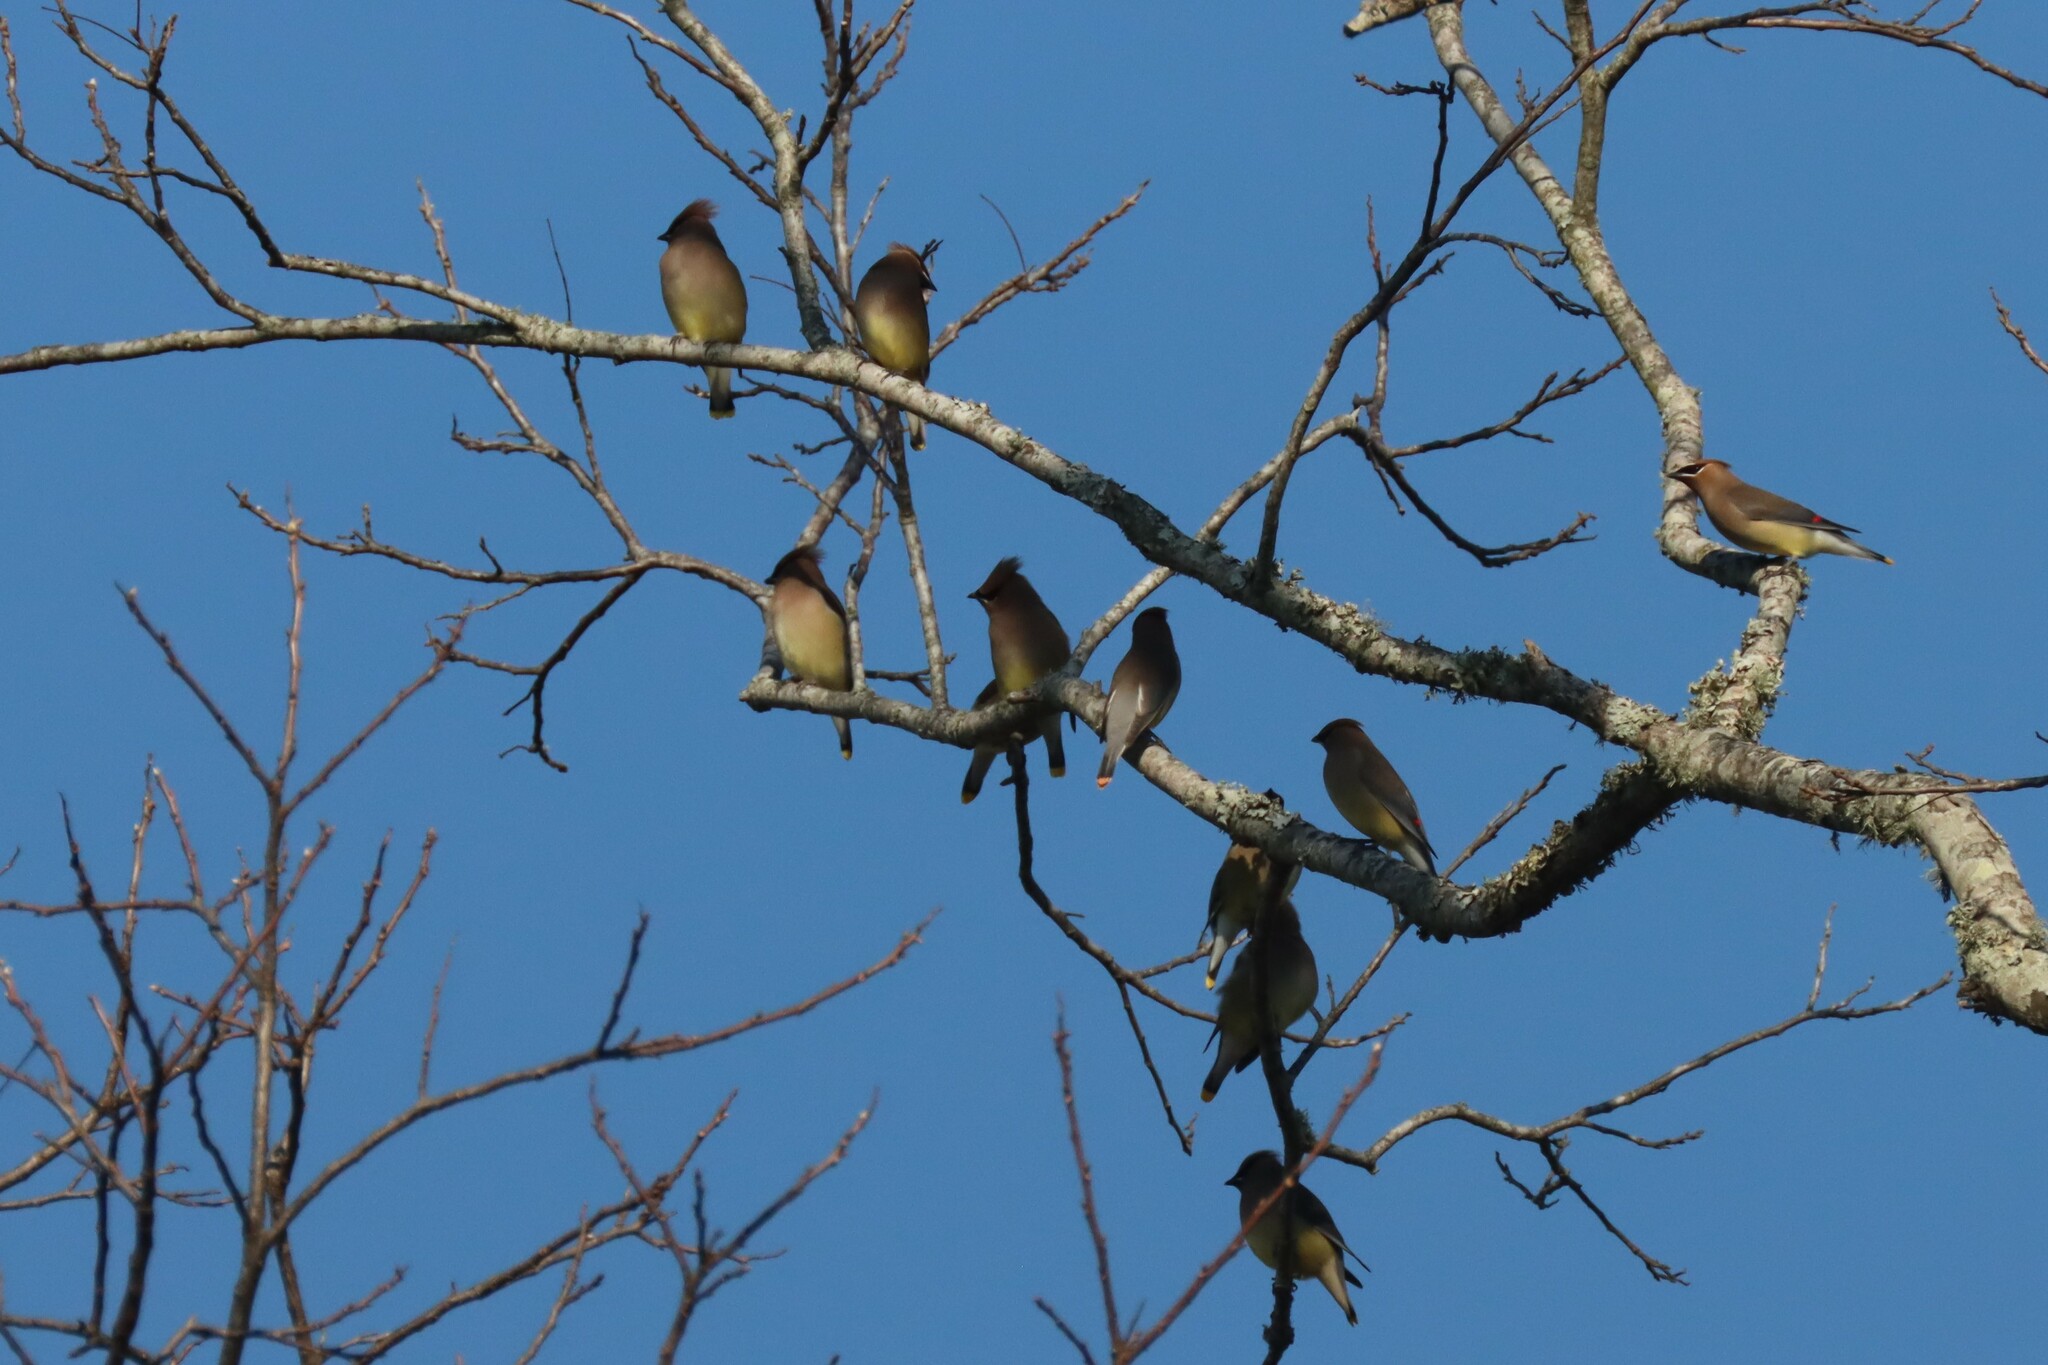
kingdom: Animalia
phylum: Chordata
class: Aves
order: Passeriformes
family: Bombycillidae
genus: Bombycilla
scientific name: Bombycilla cedrorum
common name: Cedar waxwing
